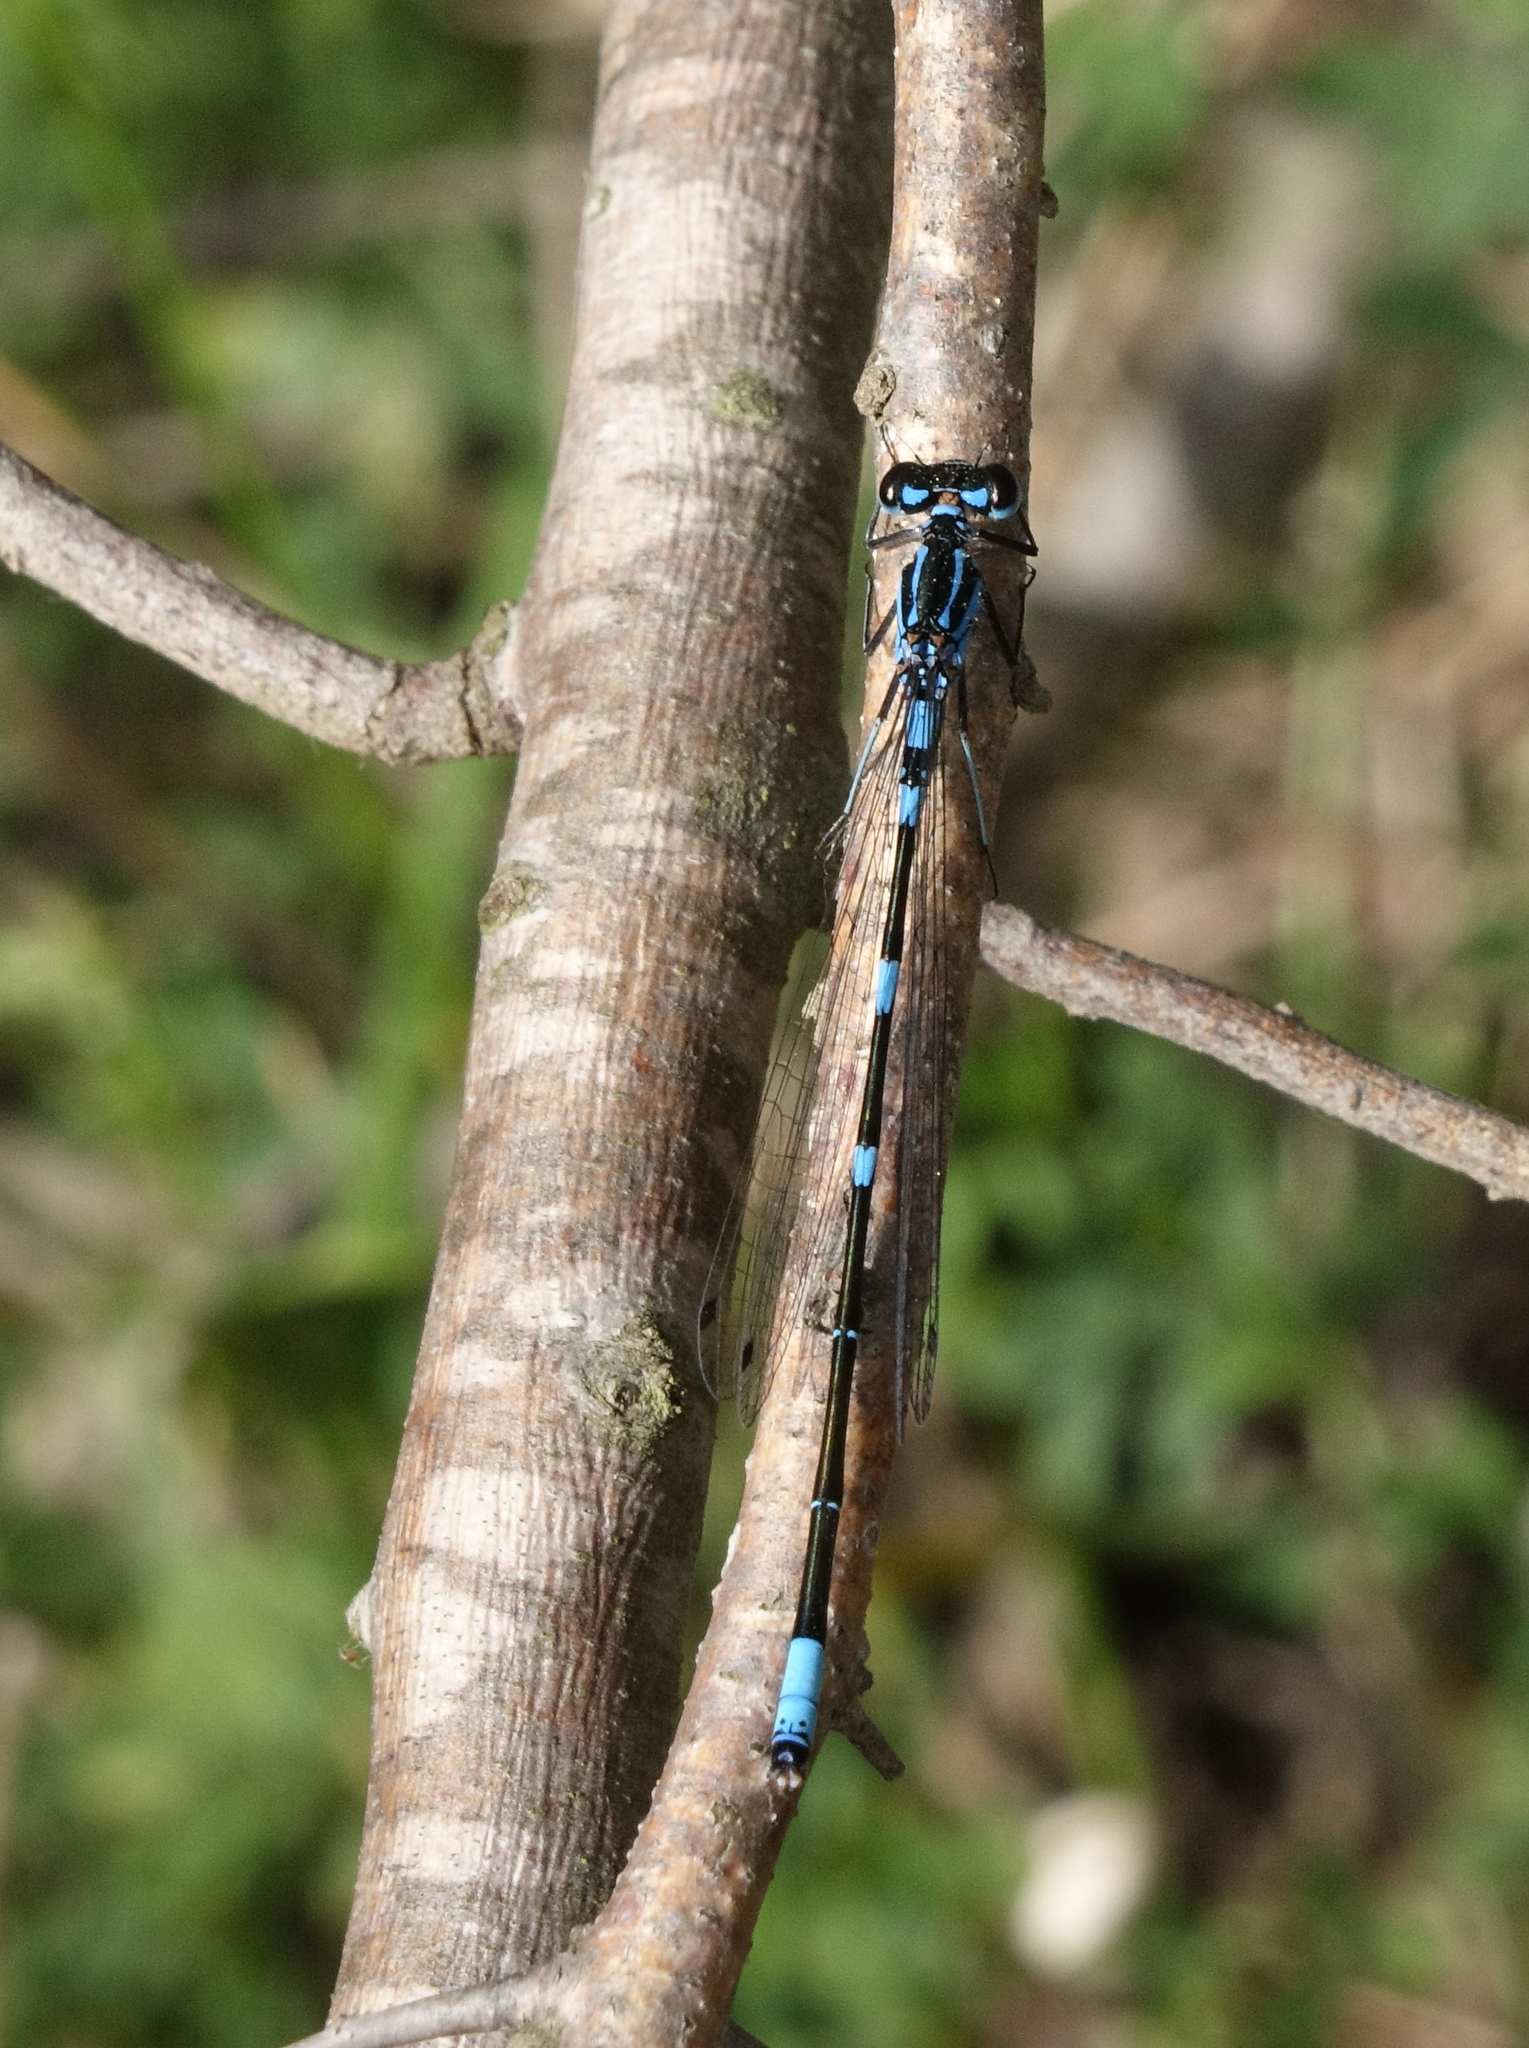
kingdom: Animalia
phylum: Arthropoda
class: Insecta
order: Odonata
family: Coenagrionidae
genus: Coenagrion
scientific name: Coenagrion pulchellum
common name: Variable bluet
